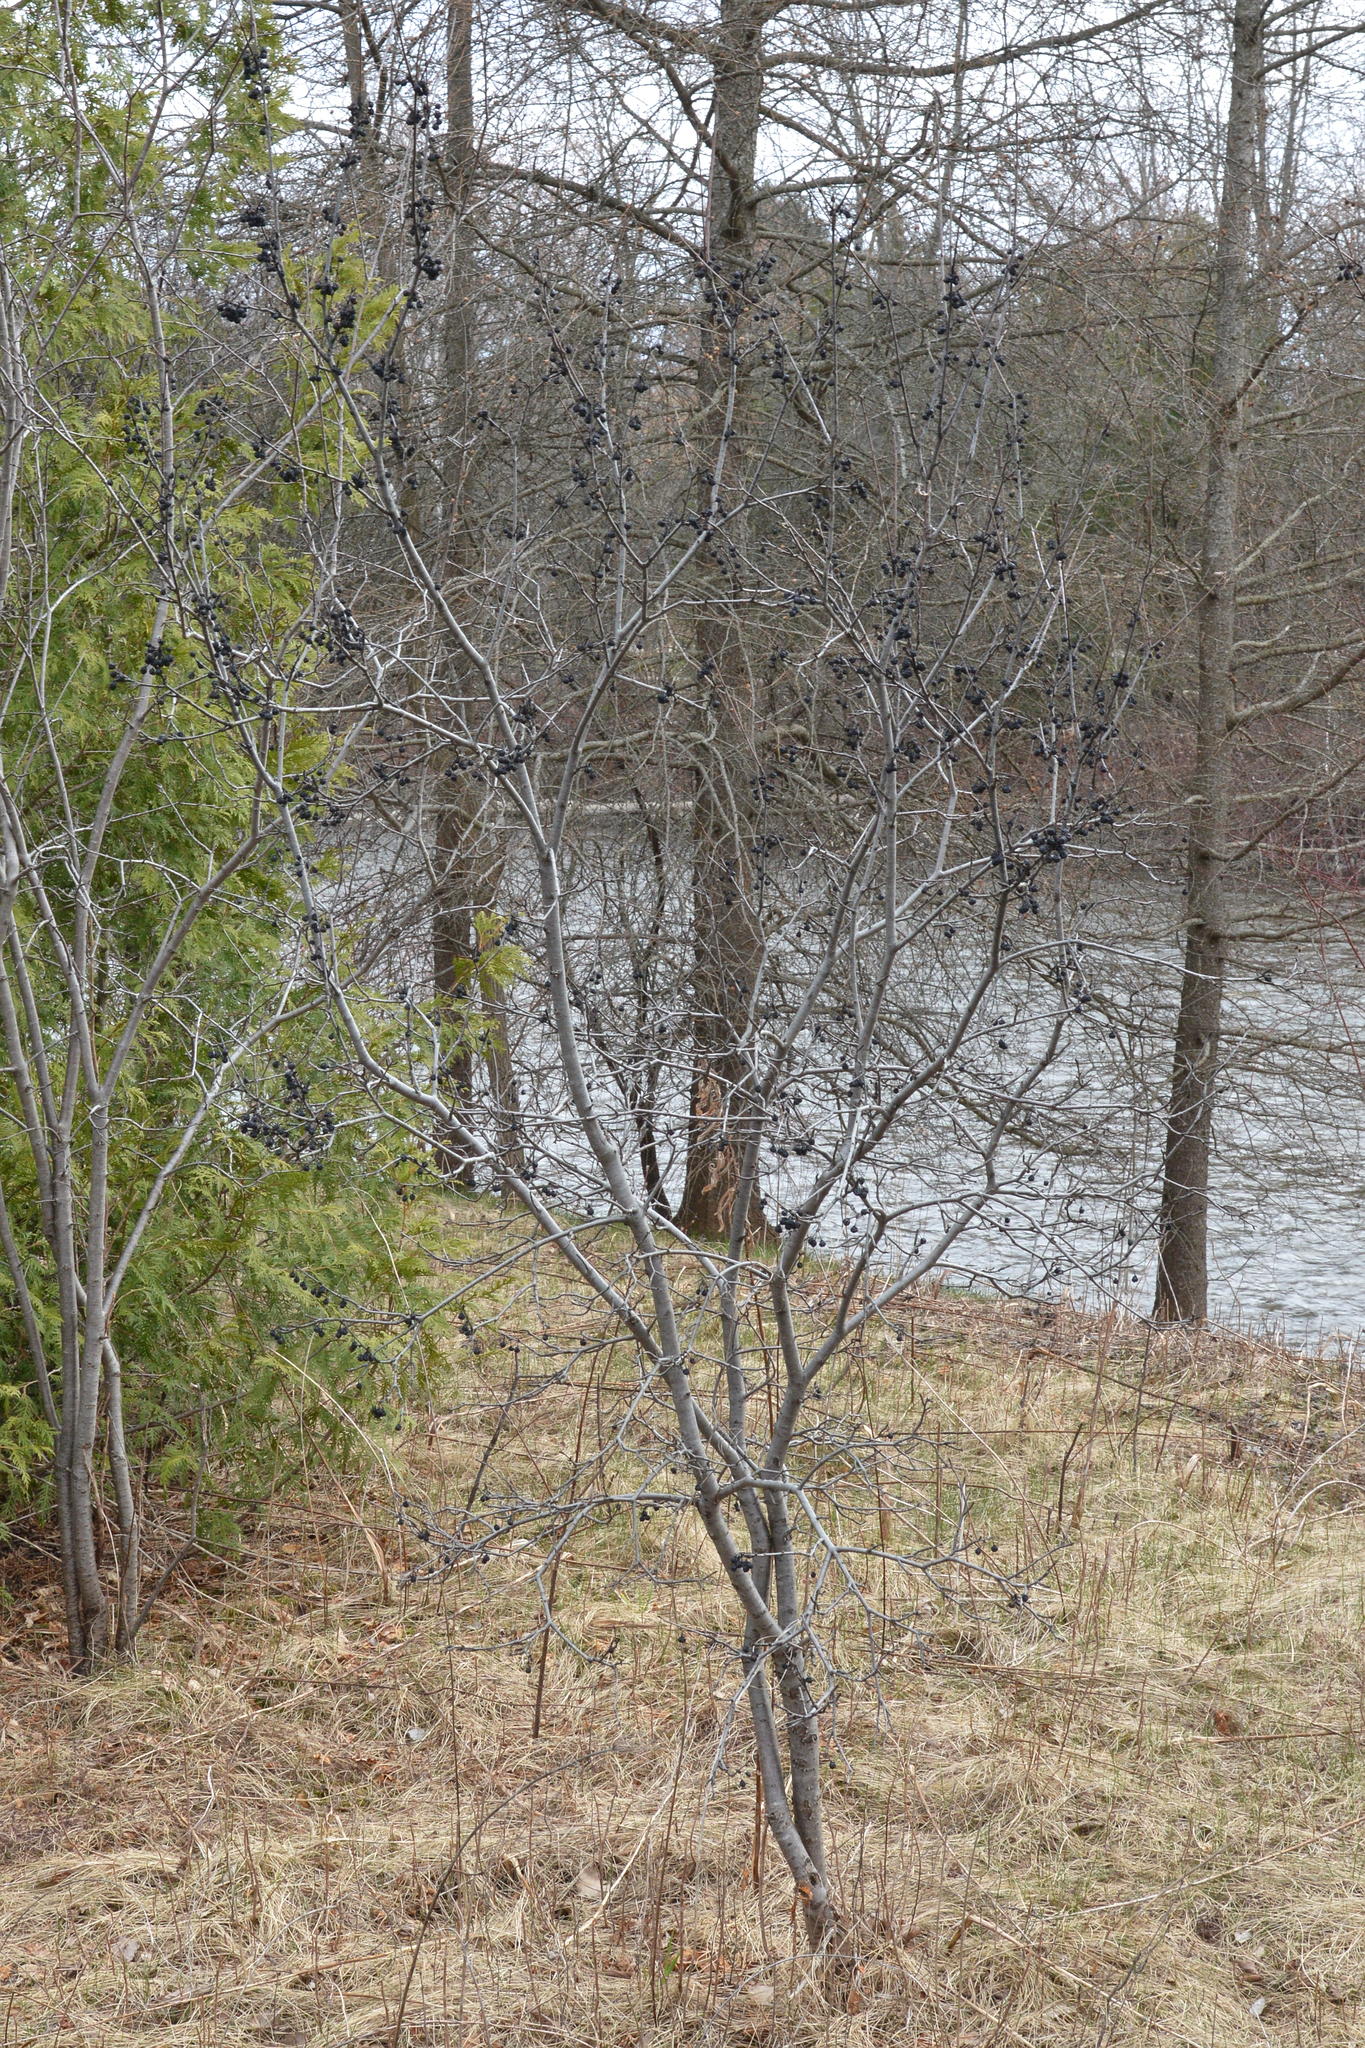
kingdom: Plantae
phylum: Tracheophyta
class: Magnoliopsida
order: Rosales
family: Rhamnaceae
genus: Rhamnus
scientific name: Rhamnus cathartica
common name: Common buckthorn
